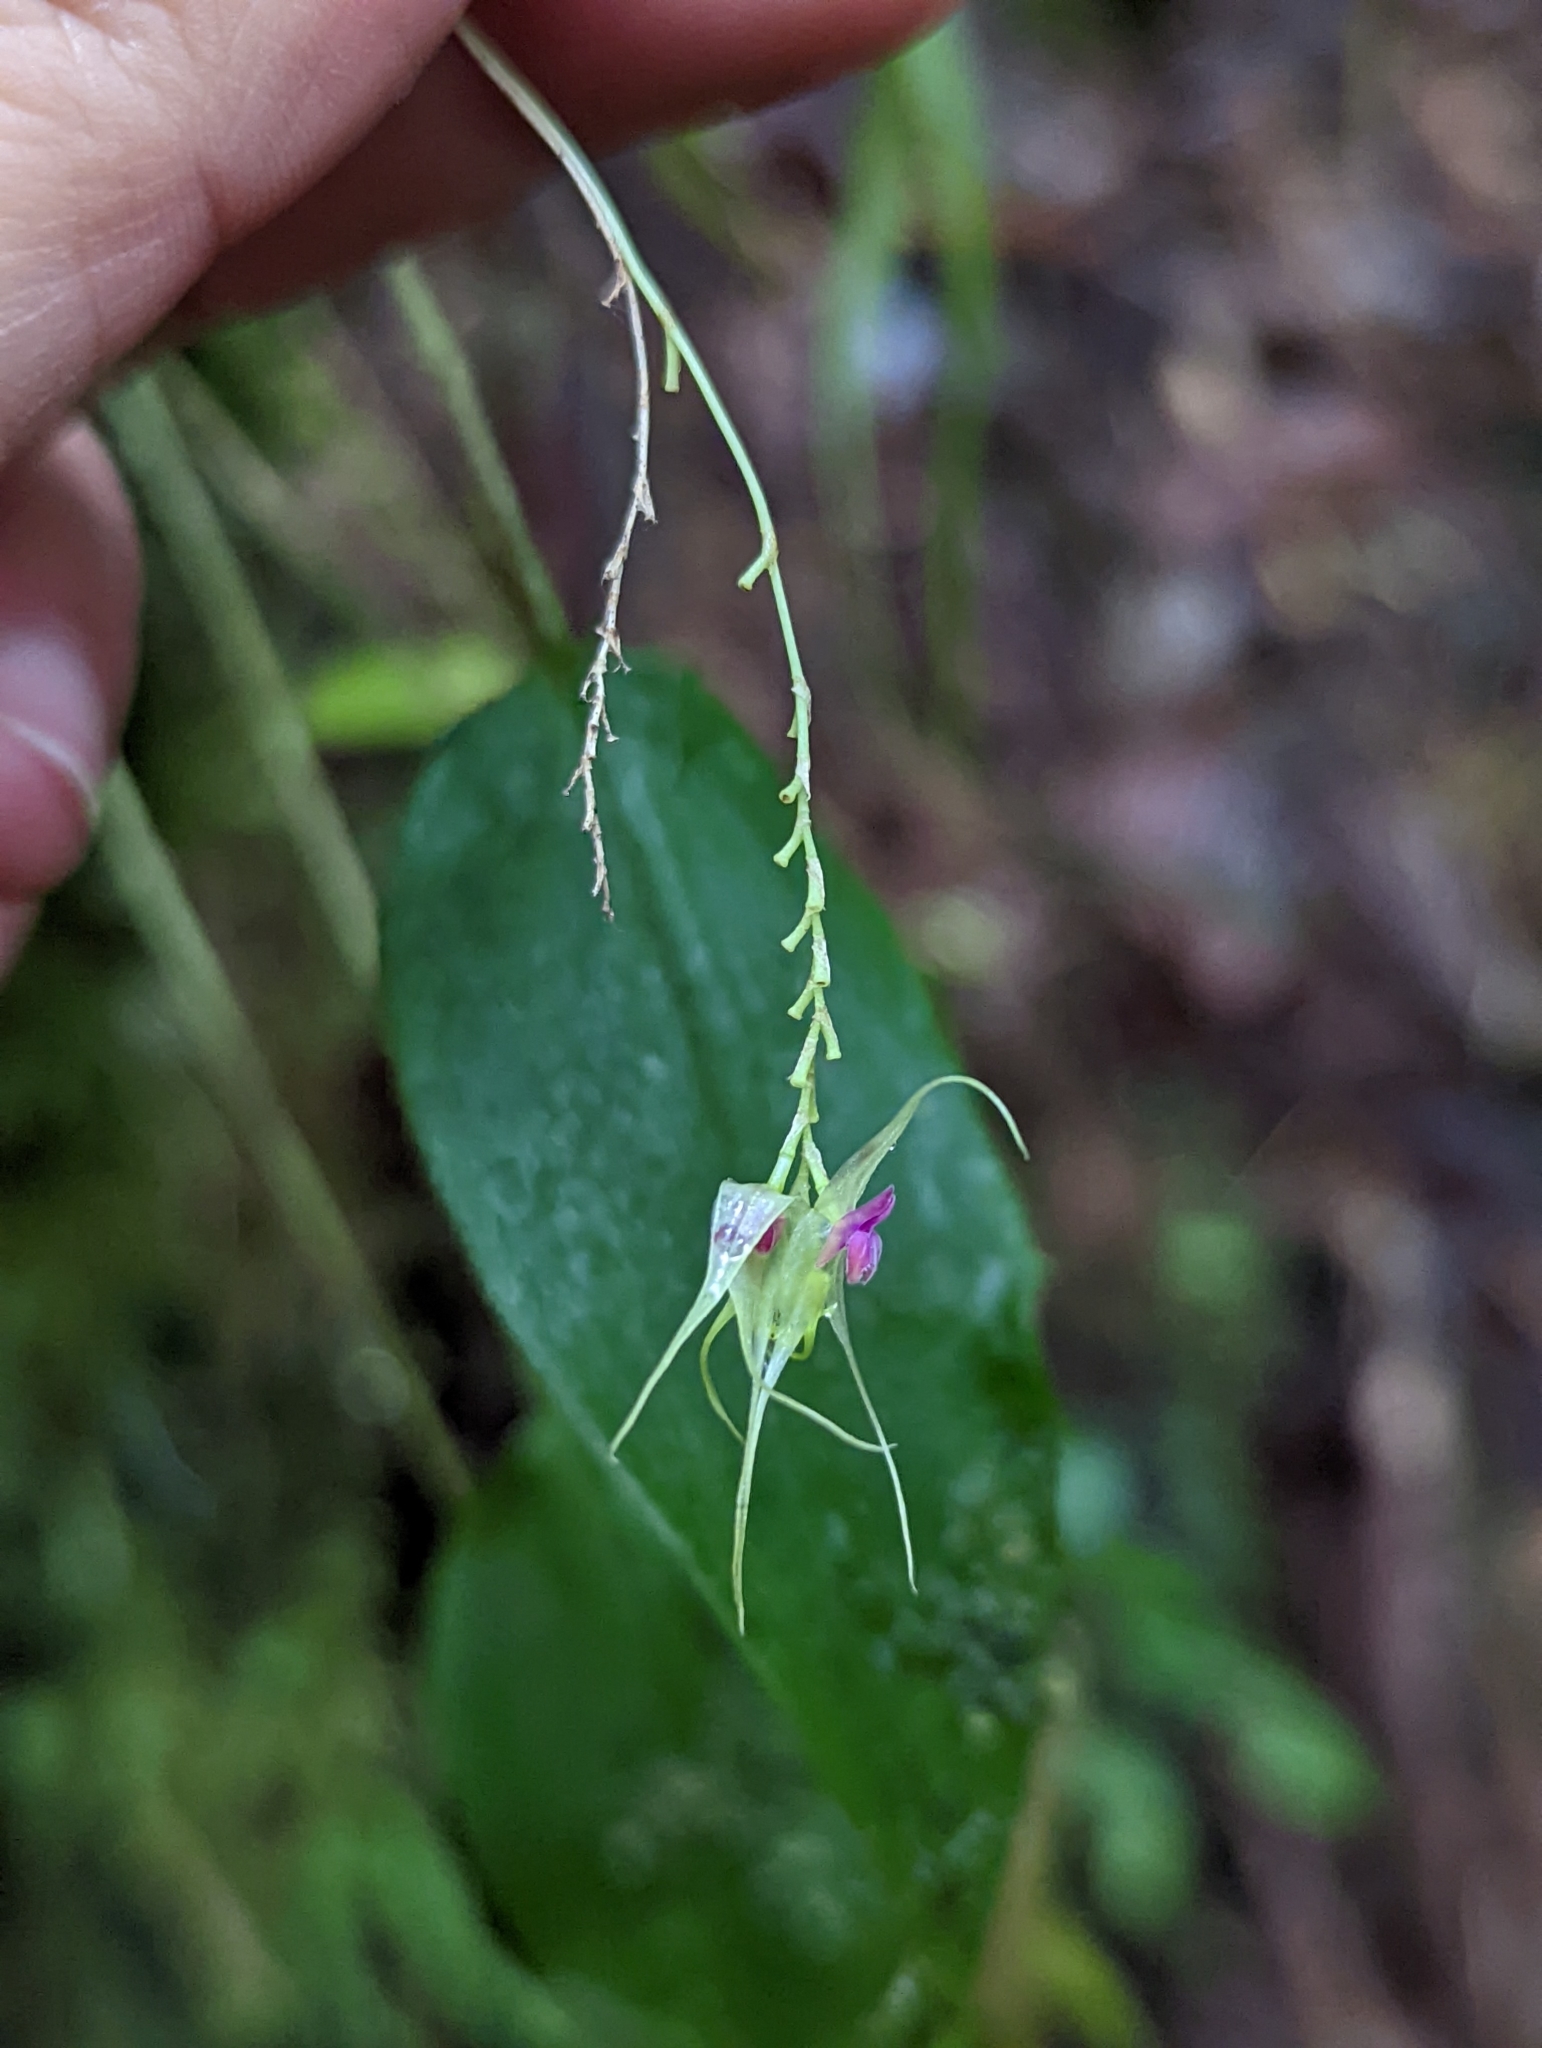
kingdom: Plantae
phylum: Tracheophyta
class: Liliopsida
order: Asparagales
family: Orchidaceae
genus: Lepanthes
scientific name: Lepanthes acutissima
